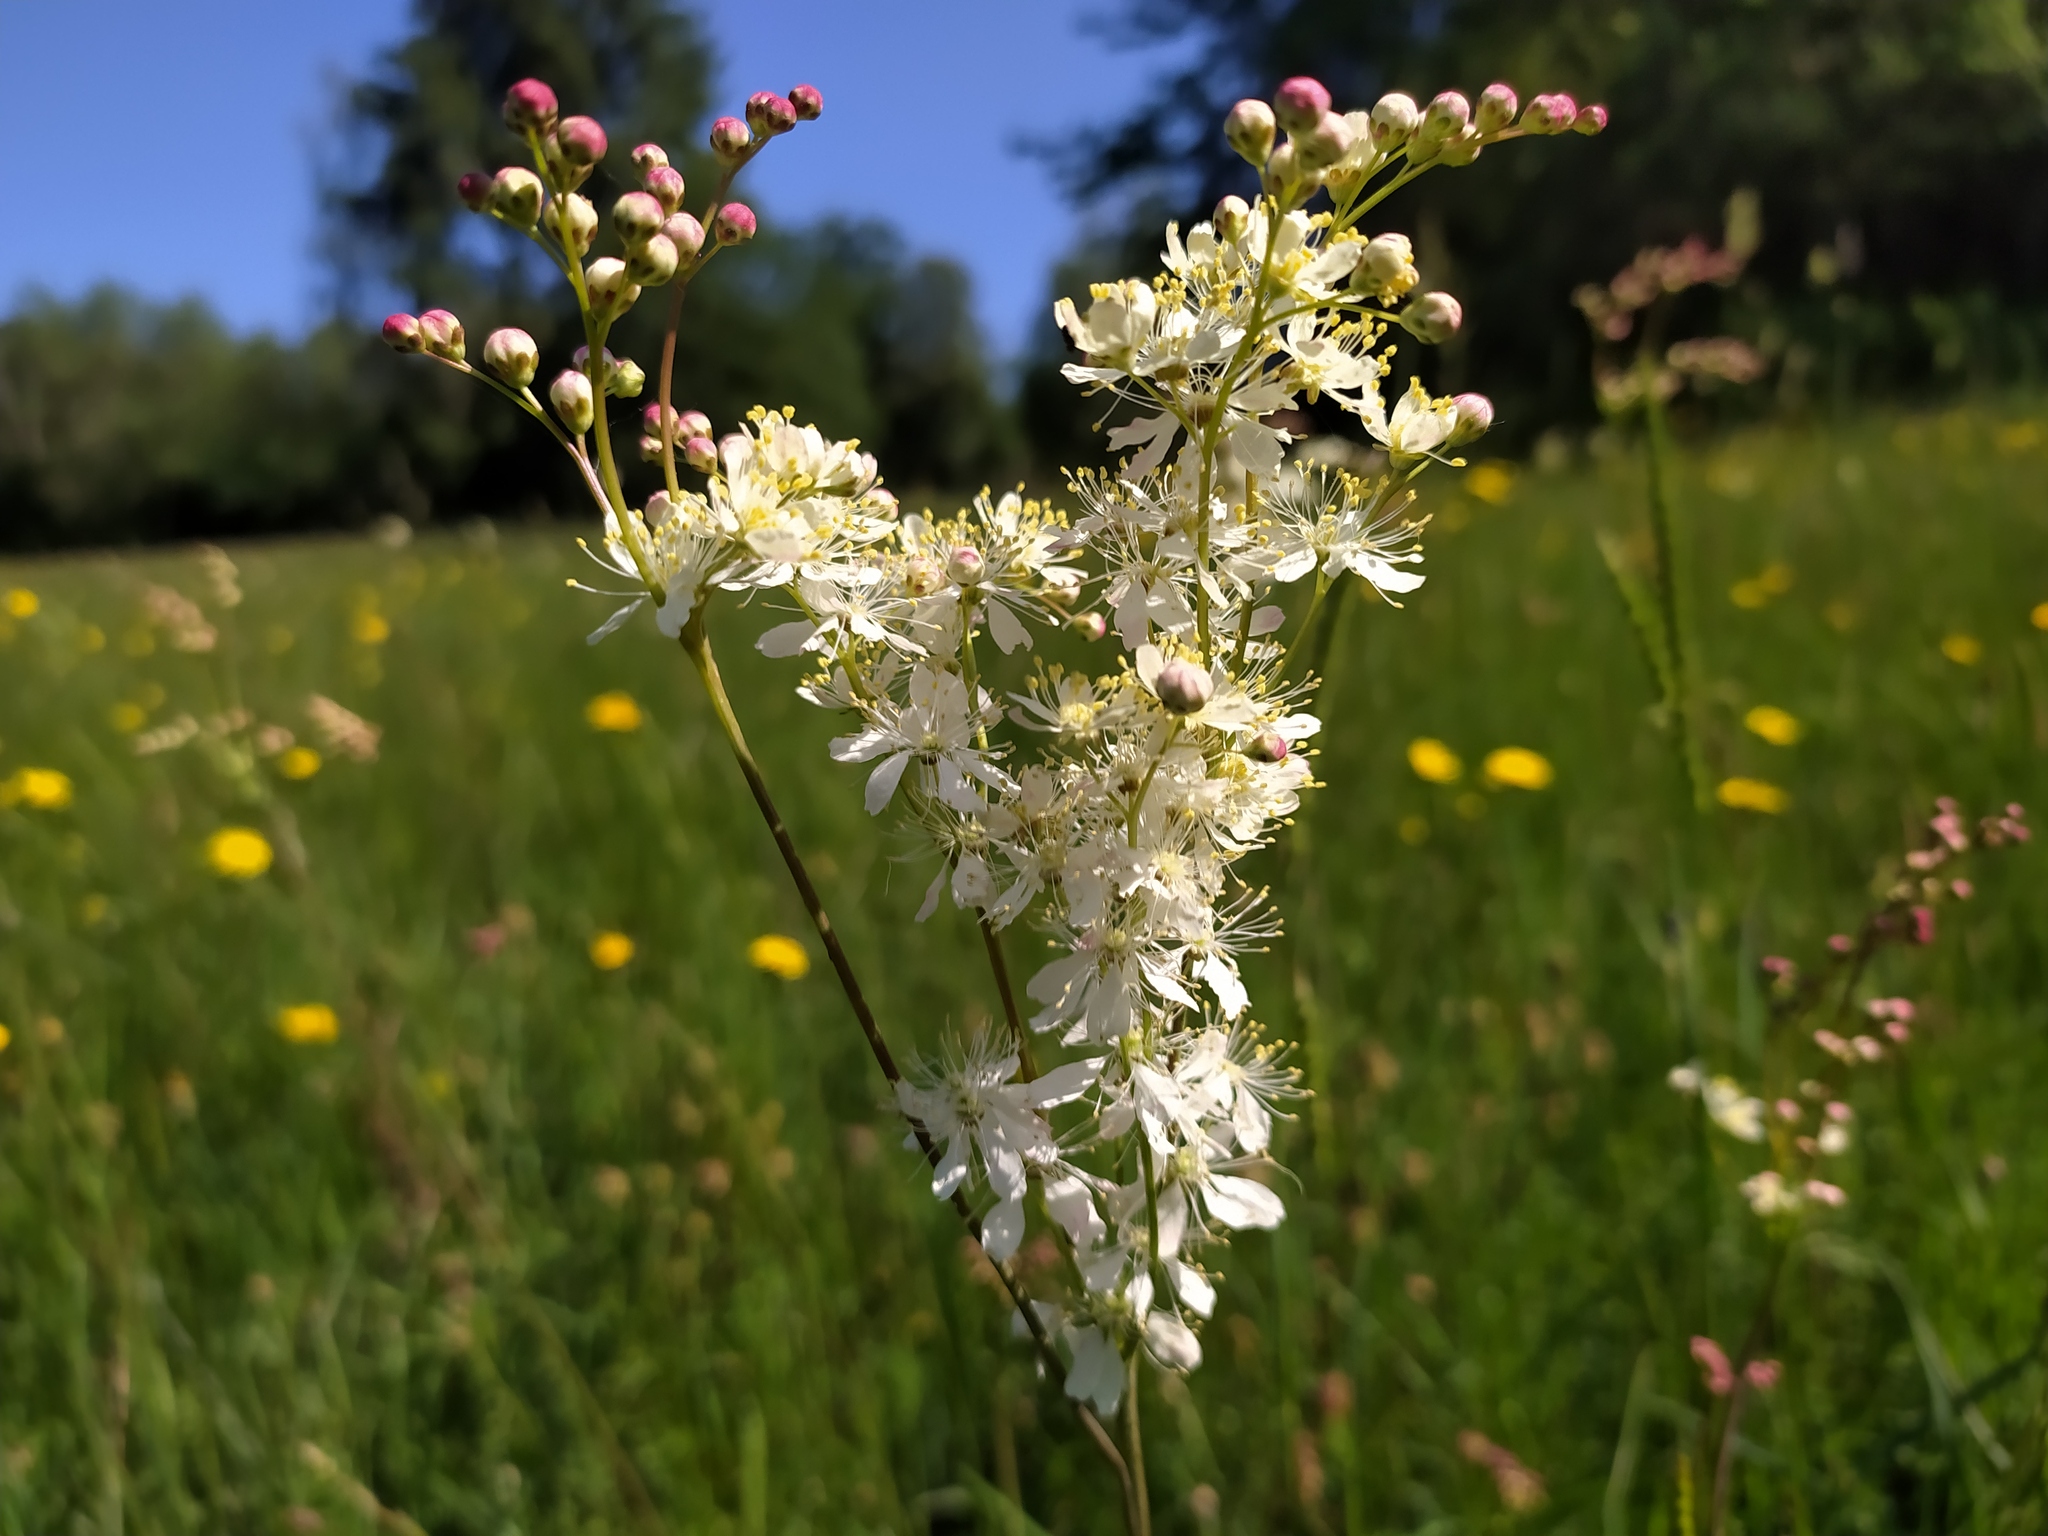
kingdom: Plantae
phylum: Tracheophyta
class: Magnoliopsida
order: Rosales
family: Rosaceae
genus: Filipendula
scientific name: Filipendula vulgaris
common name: Dropwort
